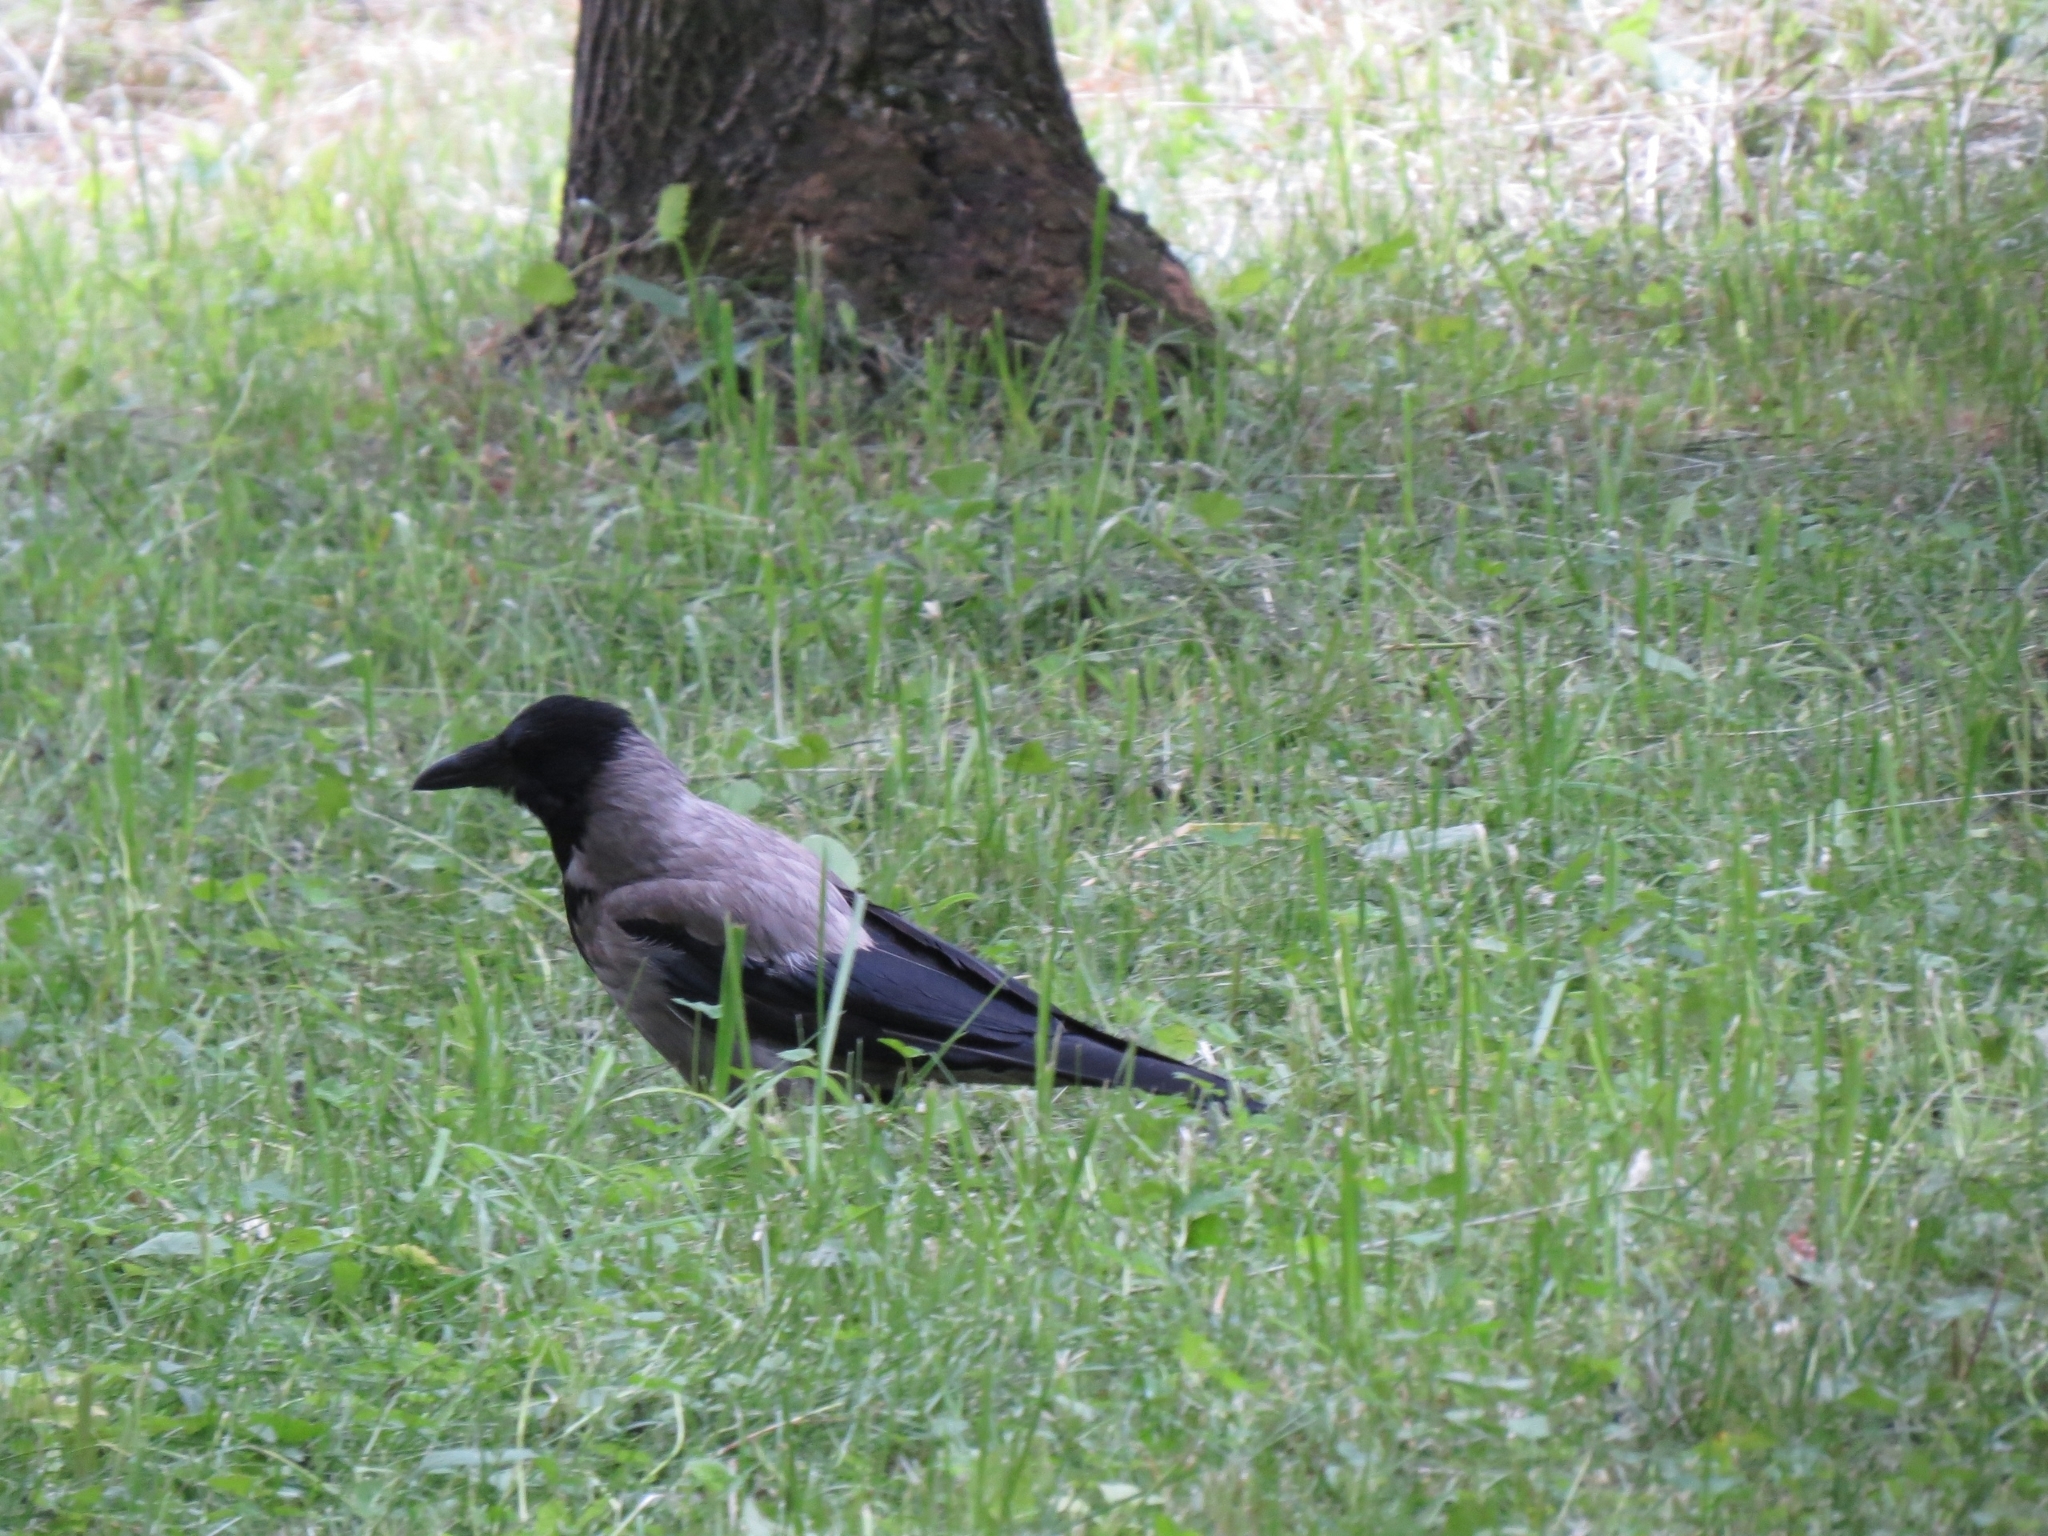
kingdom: Animalia
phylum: Chordata
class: Aves
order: Passeriformes
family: Corvidae
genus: Corvus
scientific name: Corvus cornix
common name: Hooded crow
